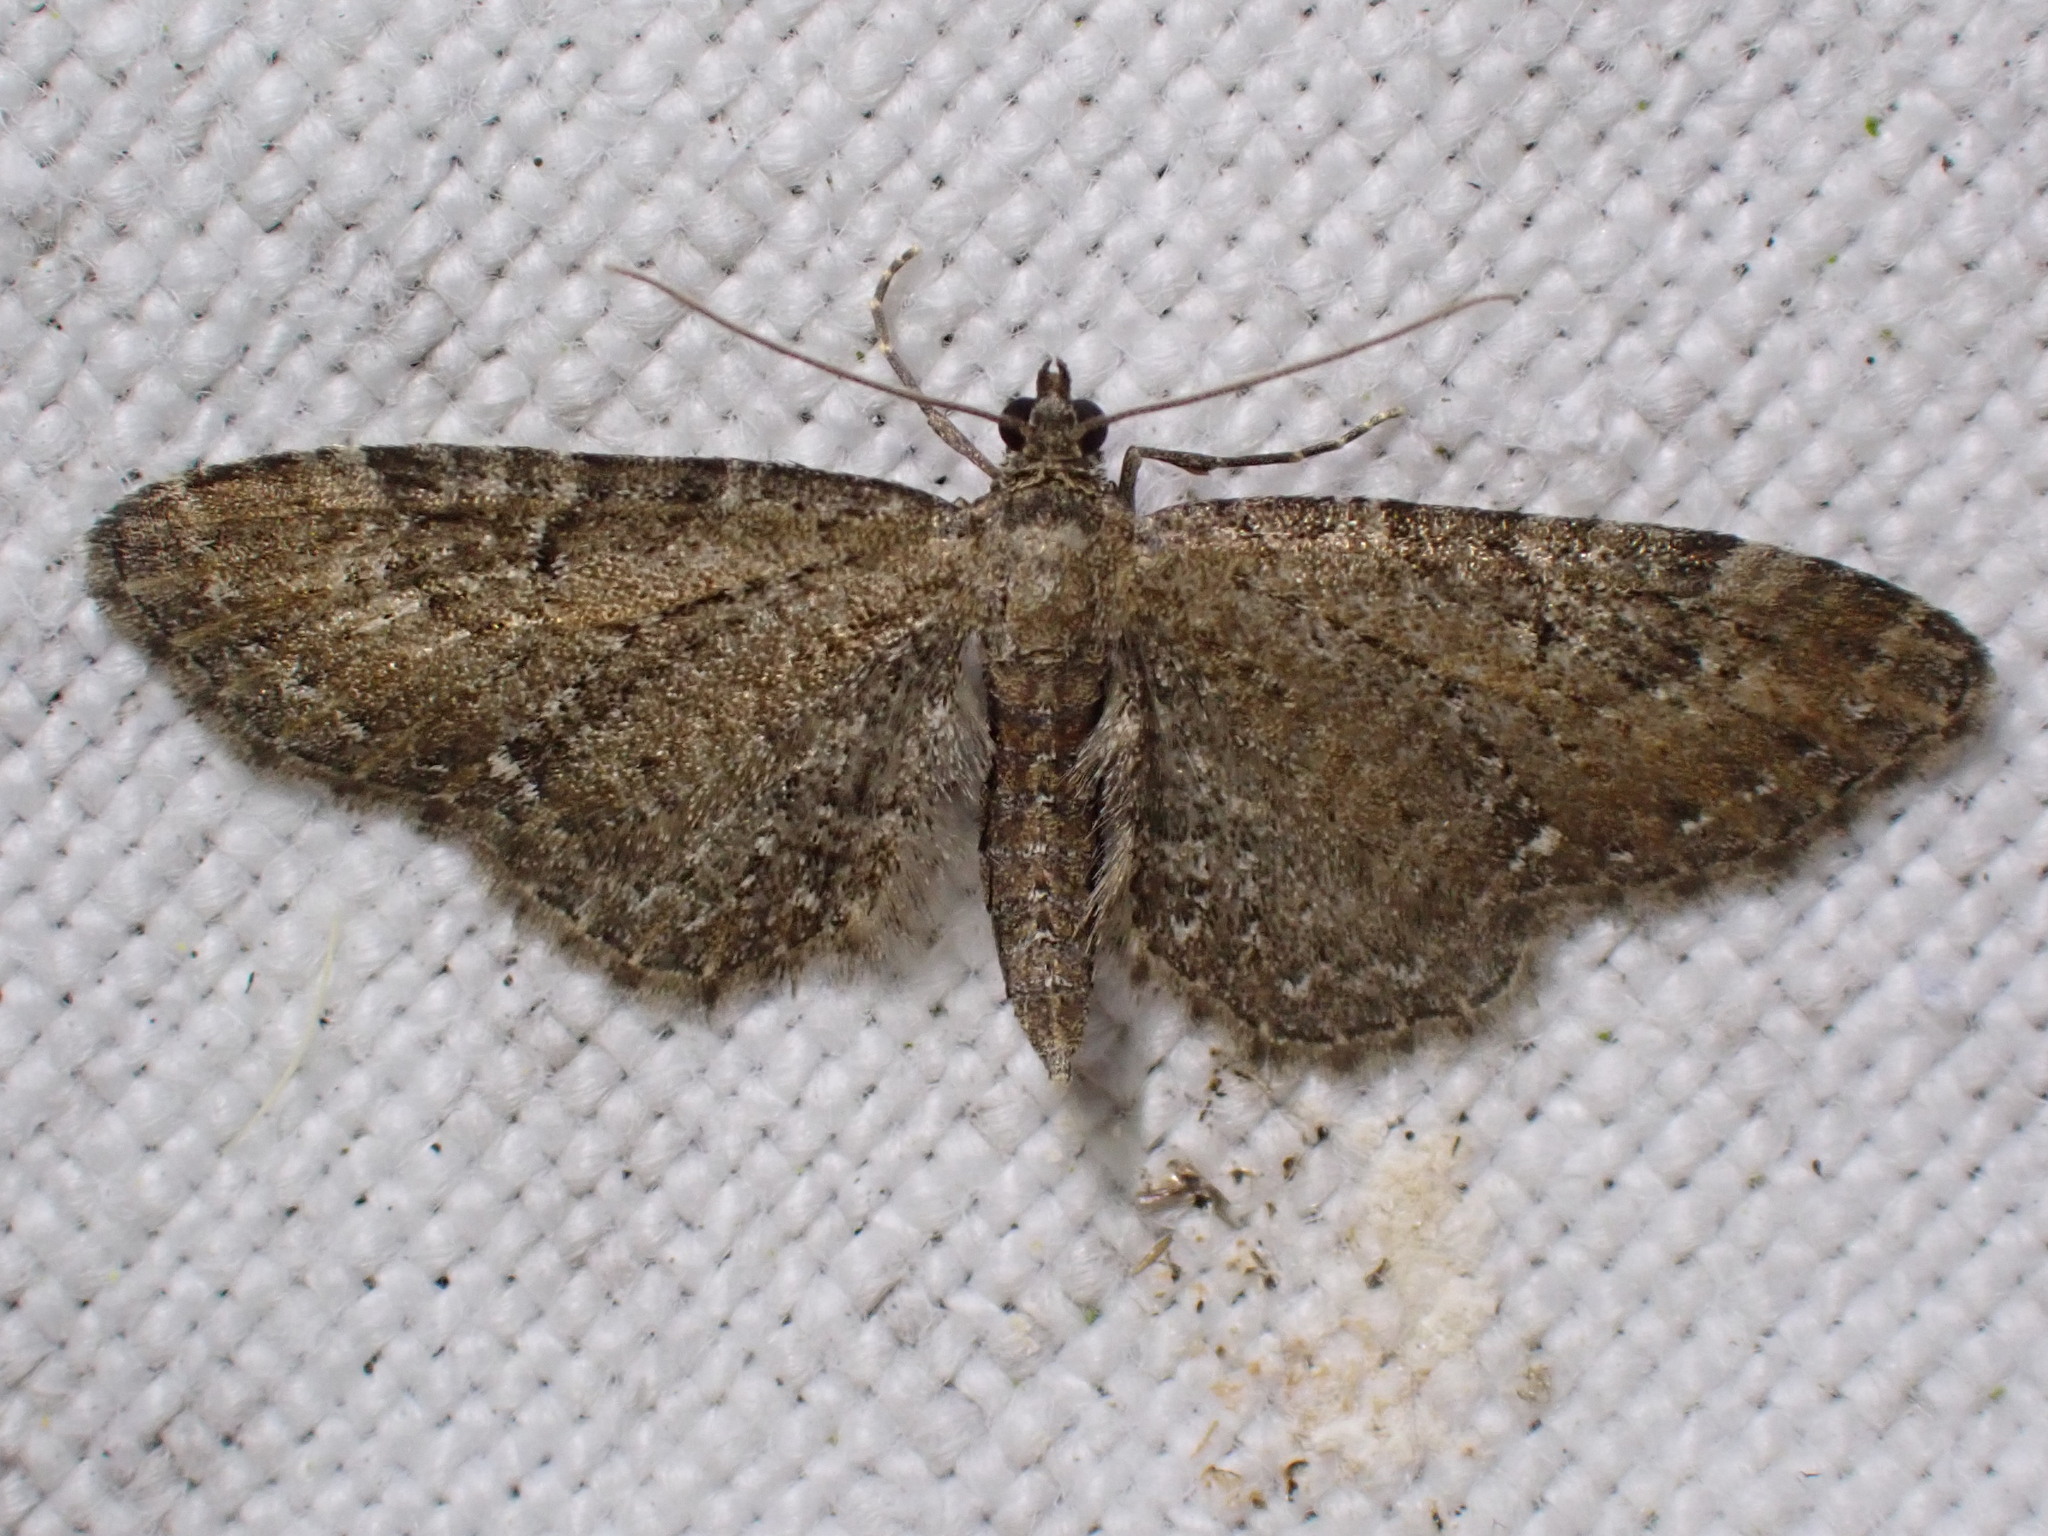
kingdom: Animalia
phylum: Arthropoda
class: Insecta
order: Lepidoptera
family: Geometridae
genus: Eupithecia
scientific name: Eupithecia vulgata
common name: Common pug
